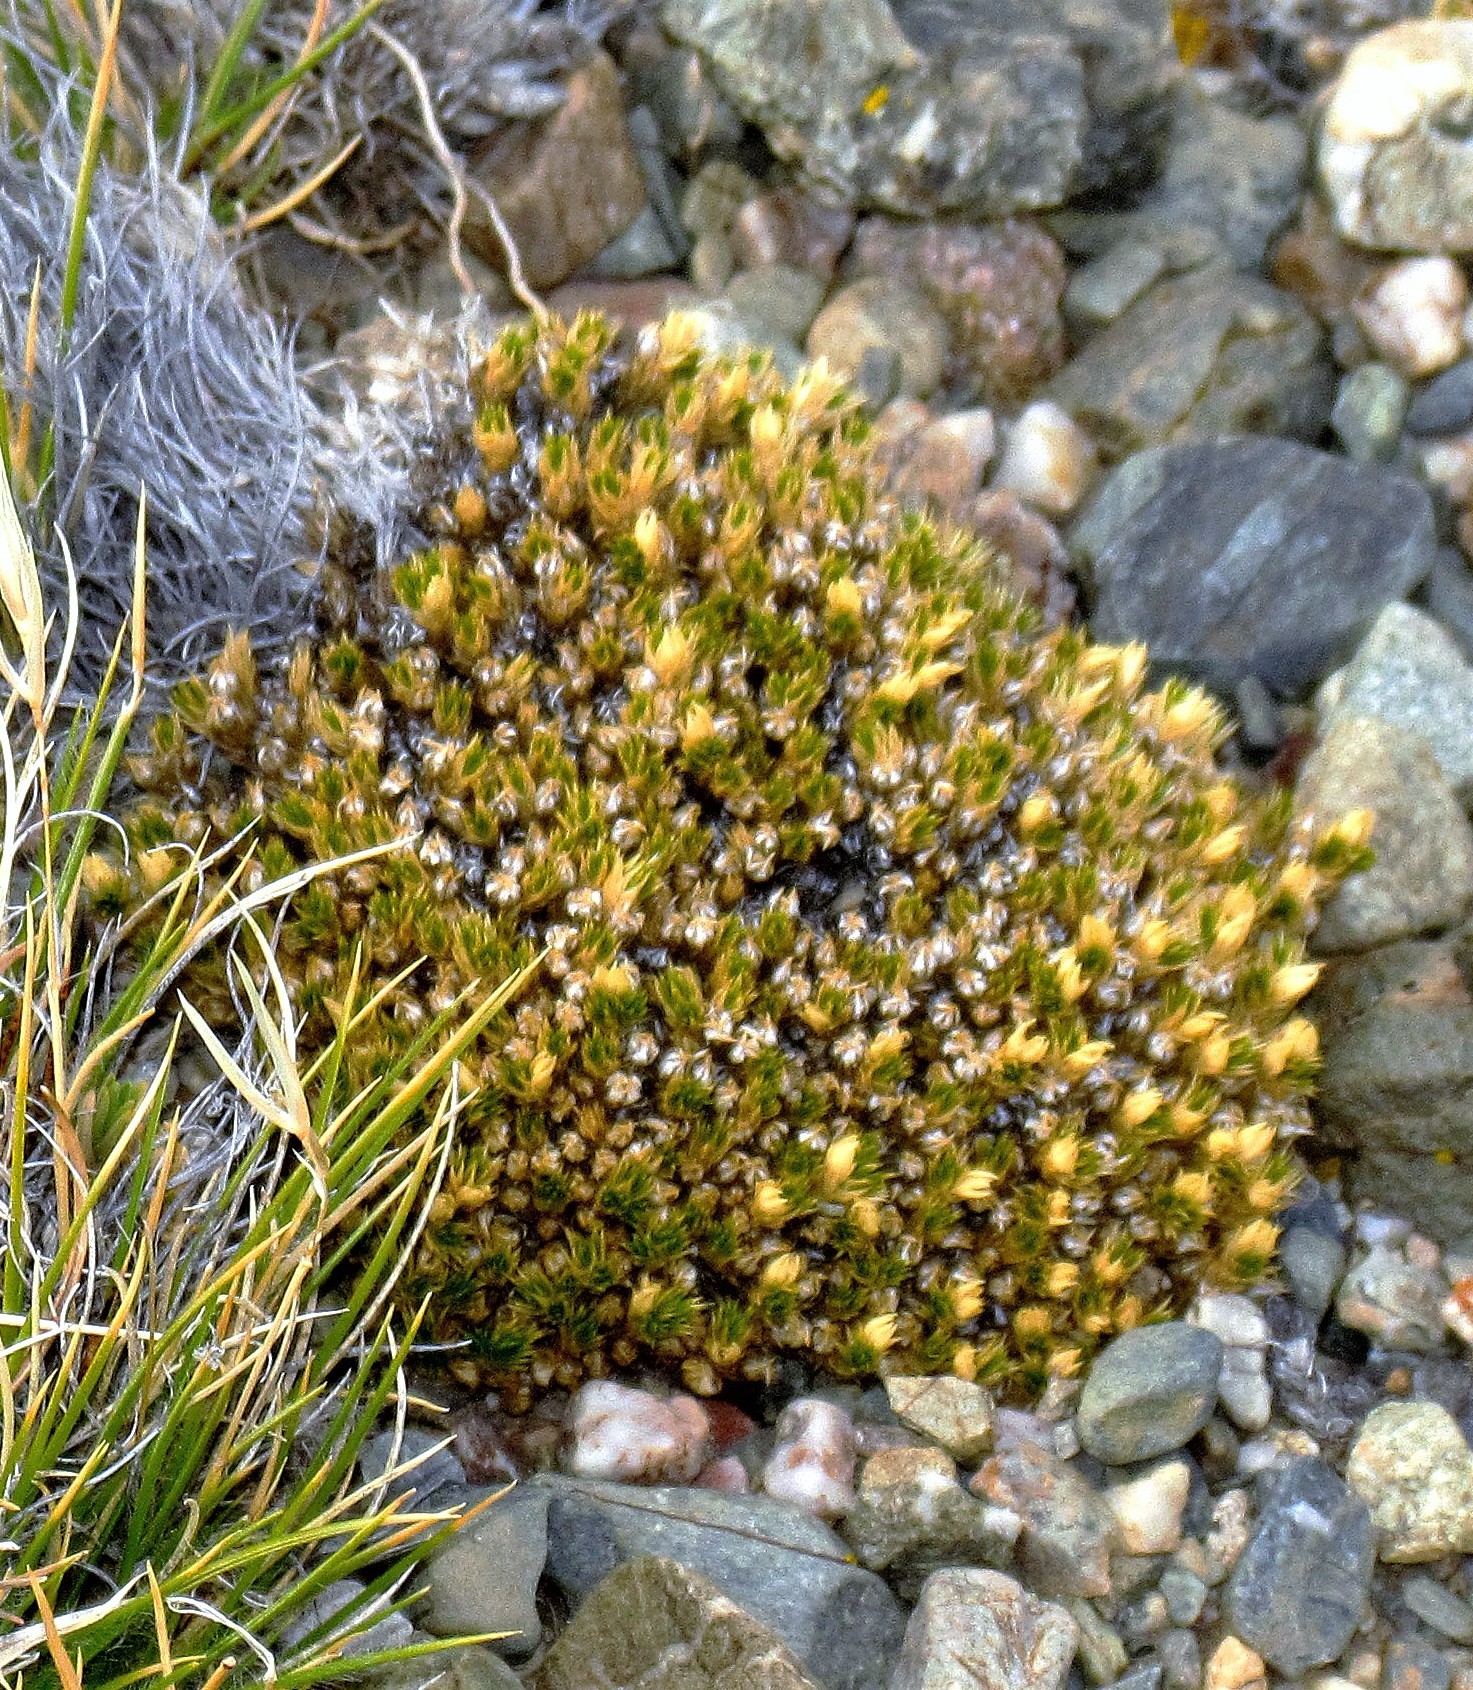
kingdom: Plantae
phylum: Tracheophyta
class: Magnoliopsida
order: Caryophyllales
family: Caryophyllaceae
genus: Colobanthus
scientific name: Colobanthus lycopodioides
